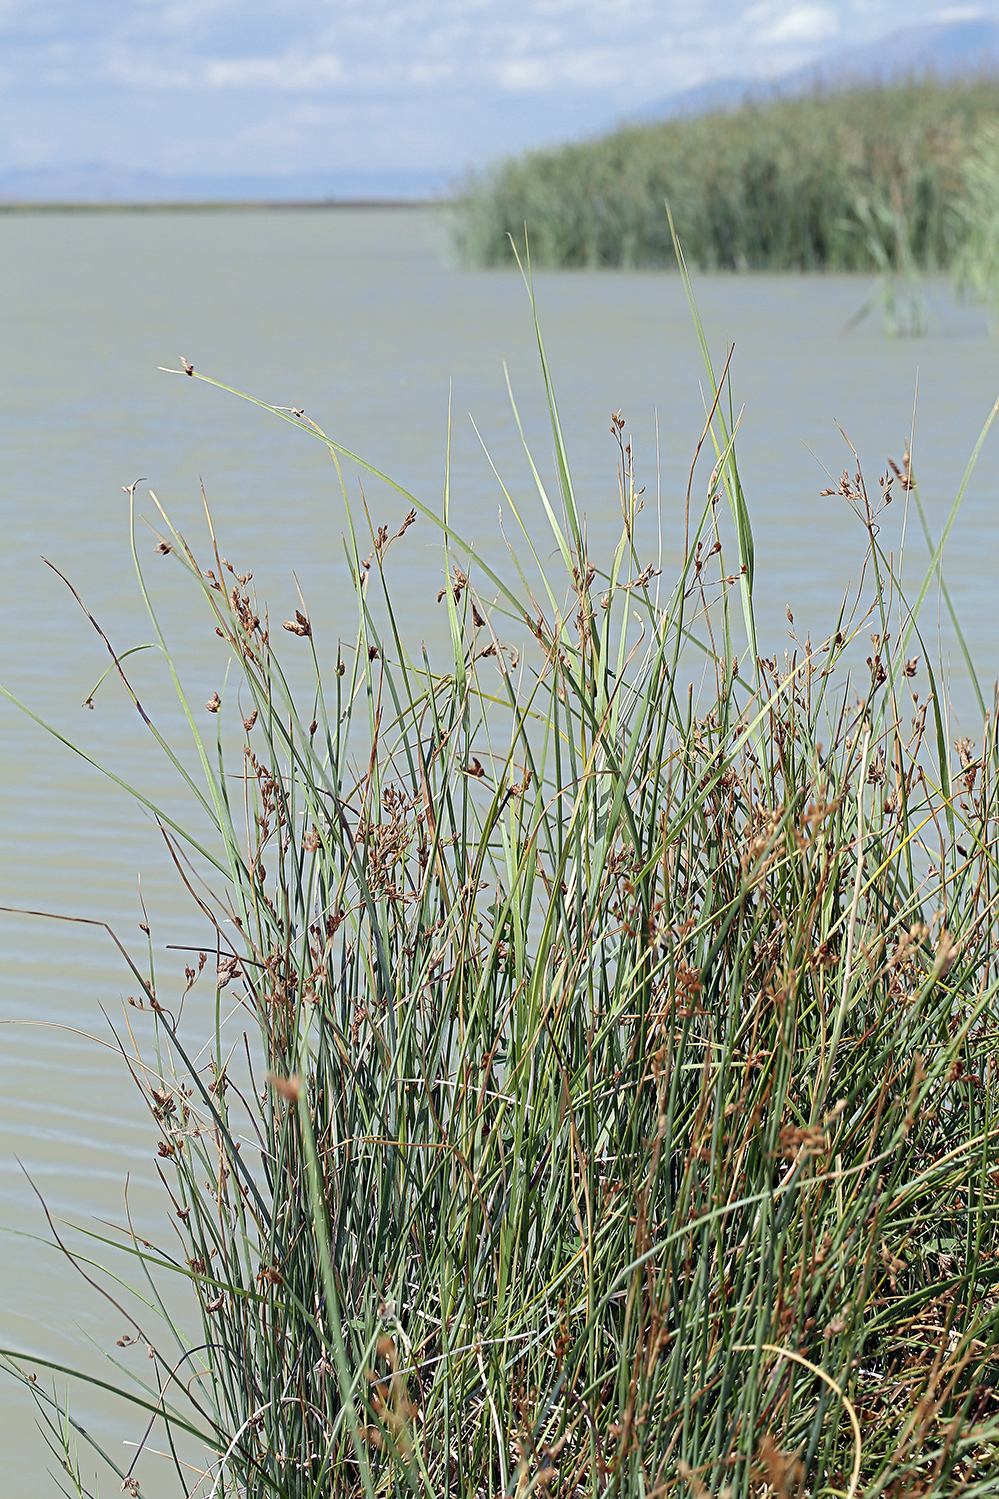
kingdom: Plantae
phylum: Tracheophyta
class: Liliopsida
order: Poales
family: Cyperaceae
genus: Schoenoplectus
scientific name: Schoenoplectus americanus
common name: American three-square bulrush
